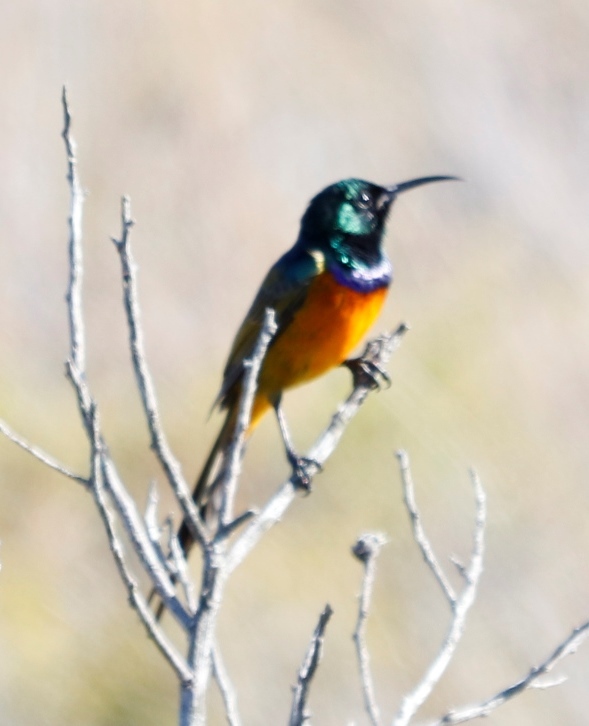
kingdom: Animalia
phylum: Chordata
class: Aves
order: Passeriformes
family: Nectariniidae
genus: Anthobaphes
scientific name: Anthobaphes violacea
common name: Orange-breasted sunbird
